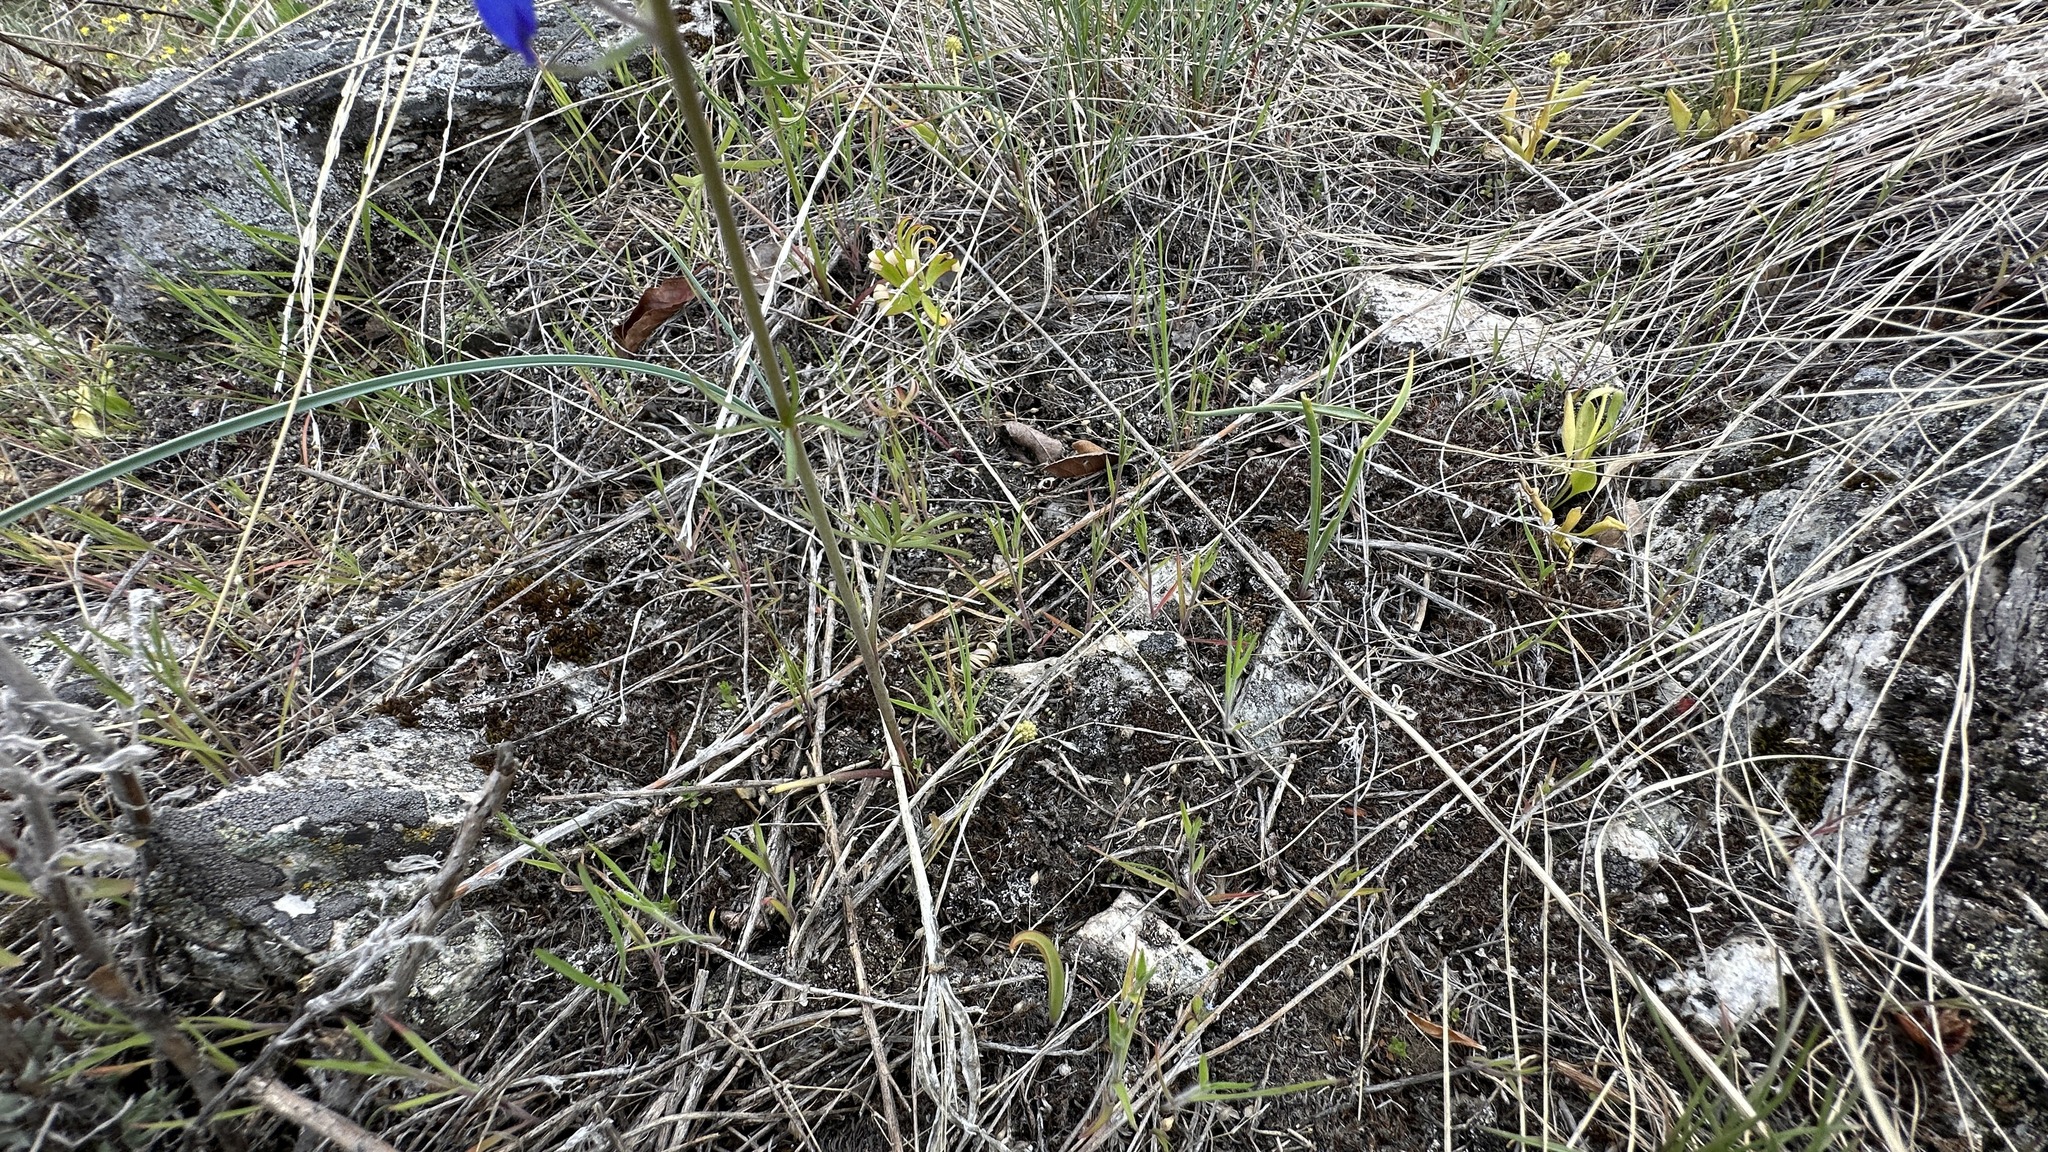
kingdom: Plantae
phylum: Tracheophyta
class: Magnoliopsida
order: Ranunculales
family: Ranunculaceae
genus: Delphinium
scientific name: Delphinium nuttallianum
